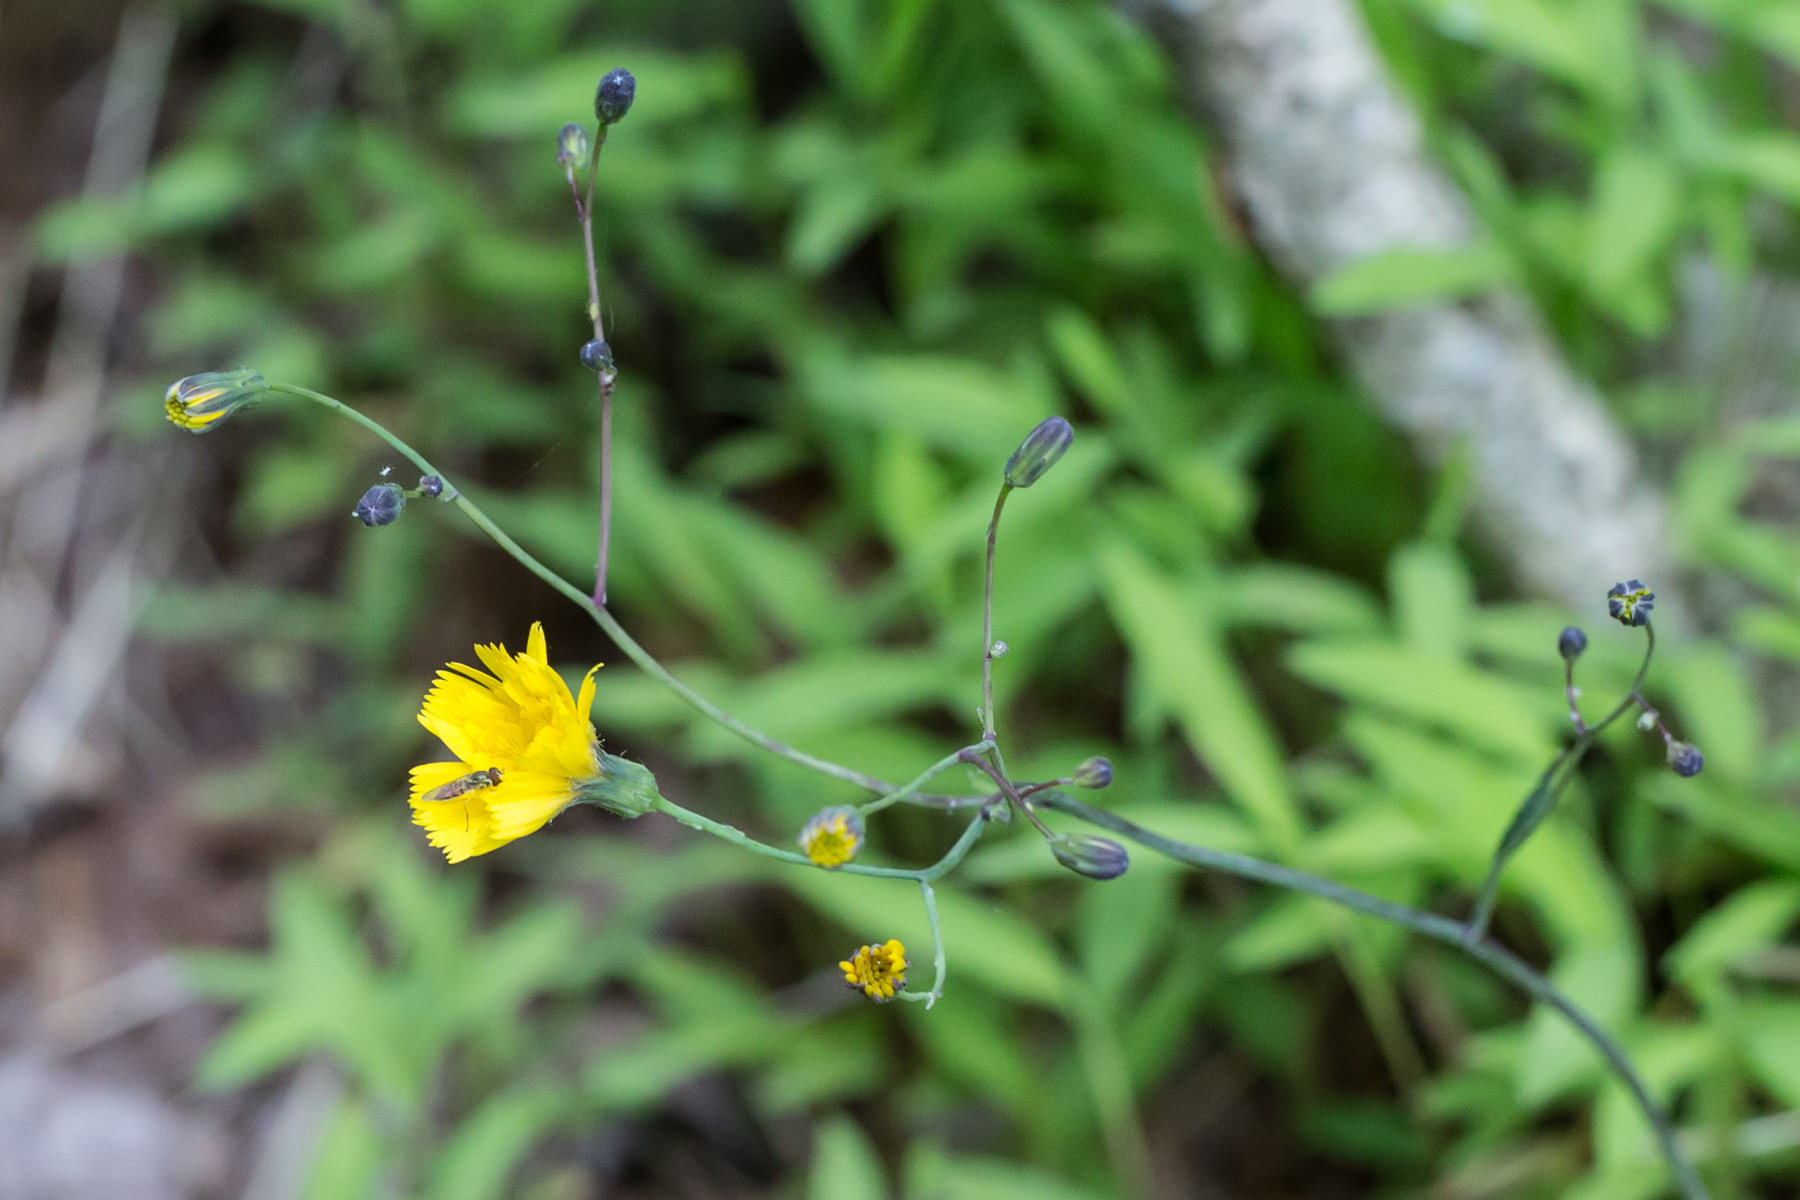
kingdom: Plantae
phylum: Tracheophyta
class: Magnoliopsida
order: Asterales
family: Asteraceae
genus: Hieracium
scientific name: Hieracium venosum
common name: Rattlesnake hawkweed
